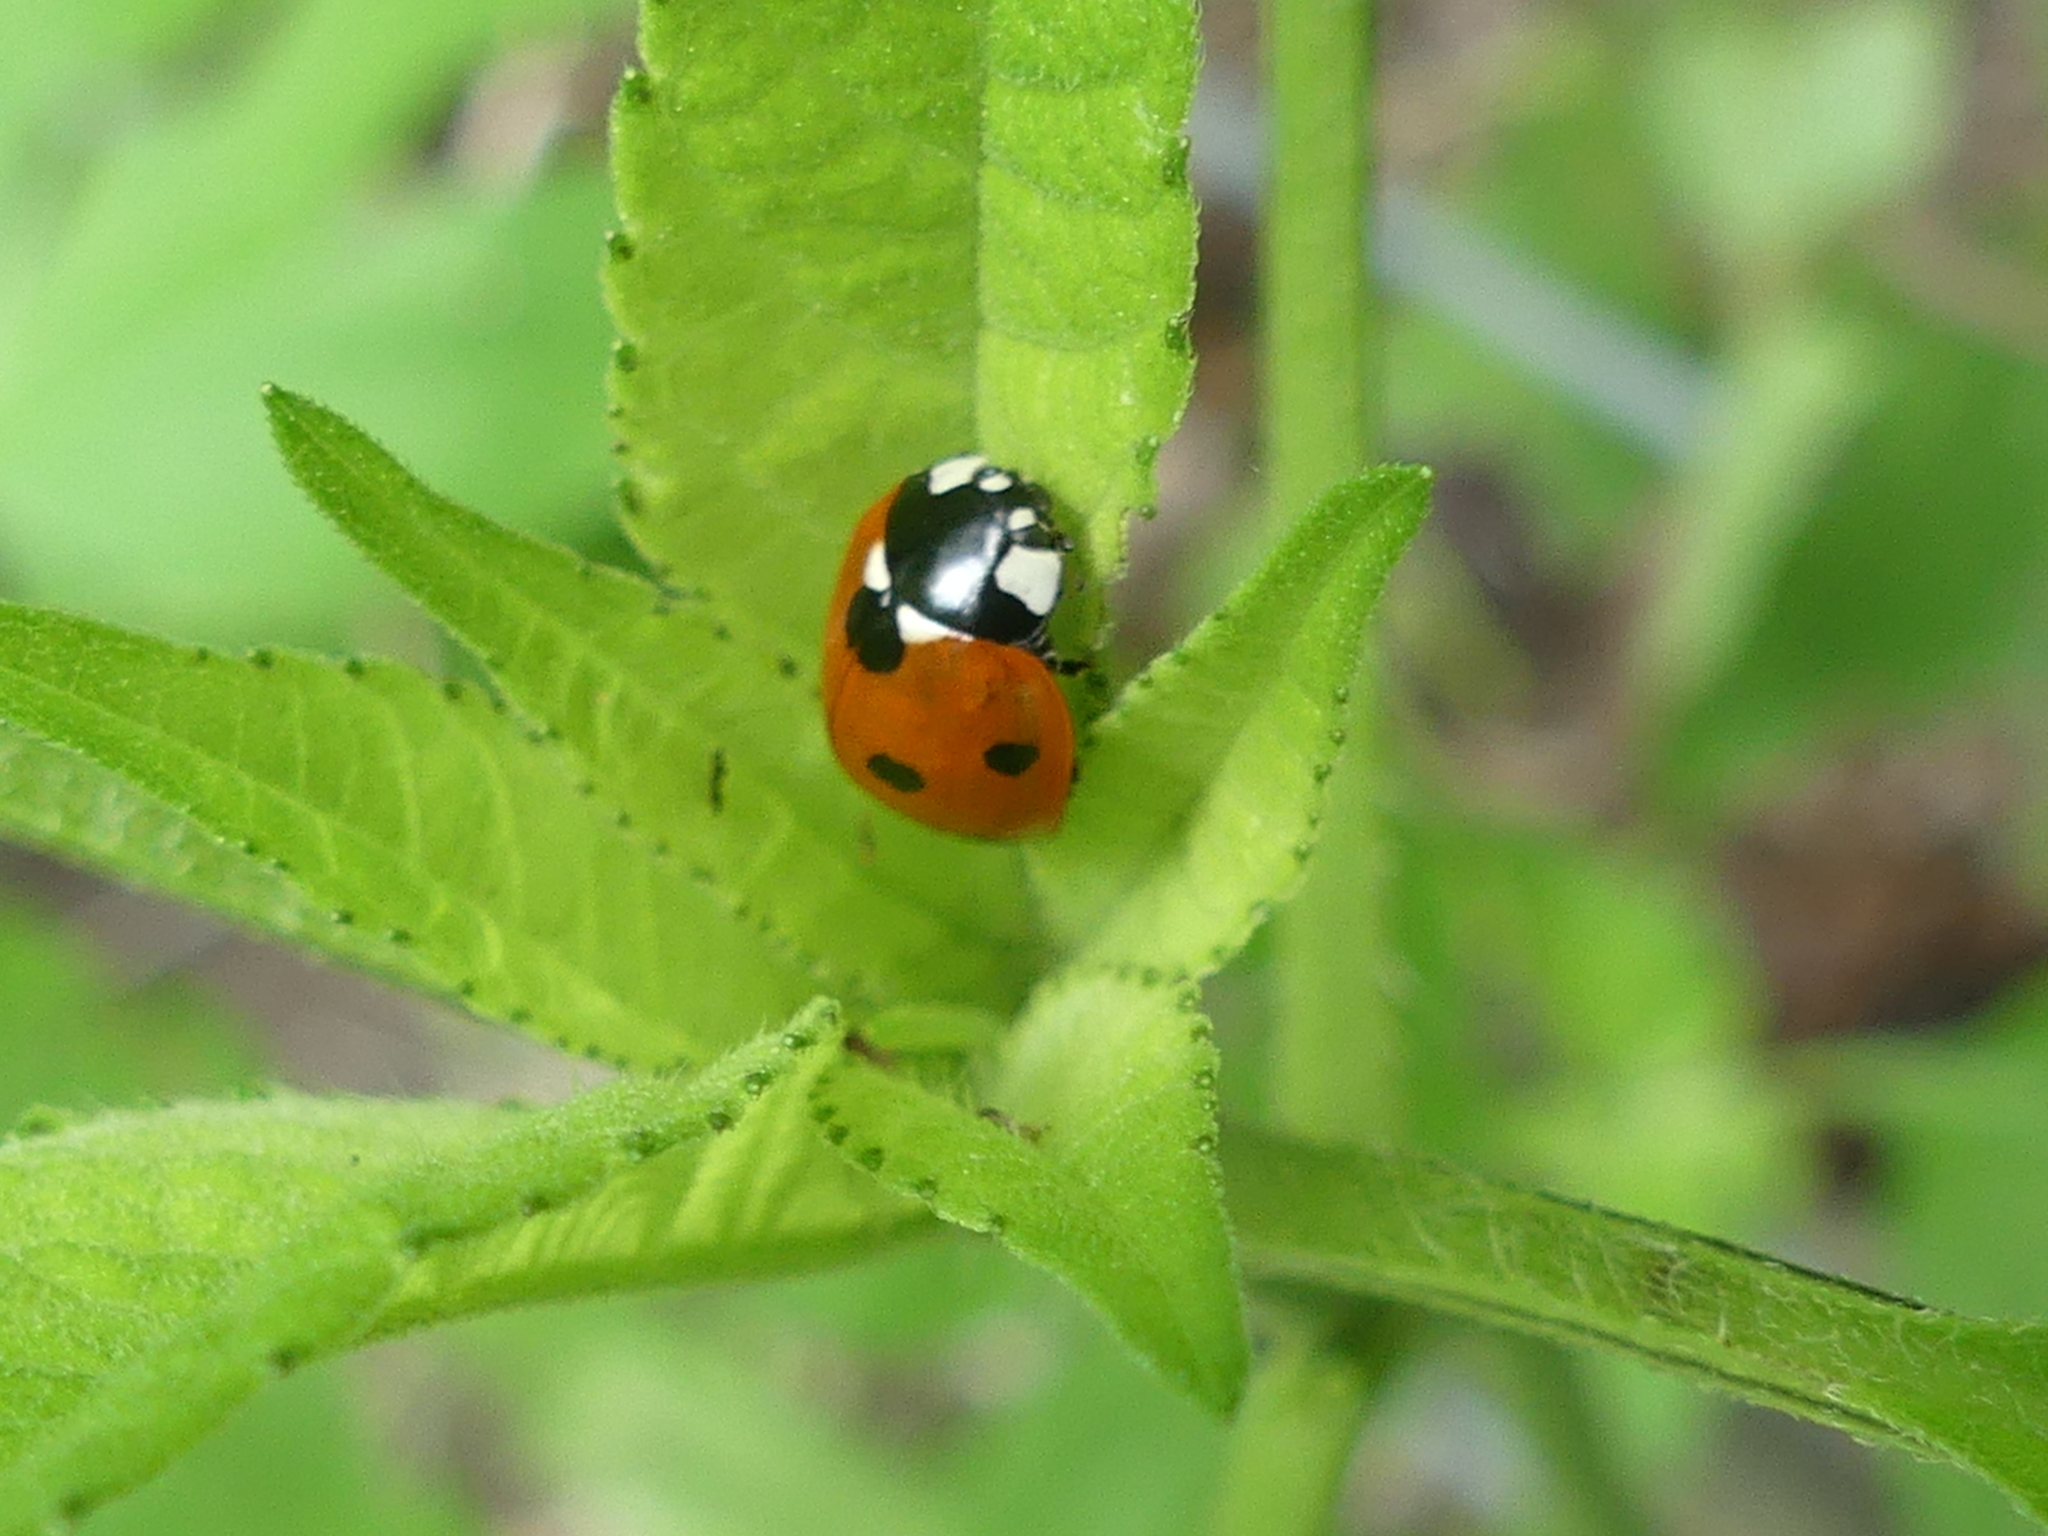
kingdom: Animalia
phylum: Arthropoda
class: Insecta
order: Coleoptera
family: Coccinellidae
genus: Coccinella
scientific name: Coccinella septempunctata
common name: Sevenspotted lady beetle
